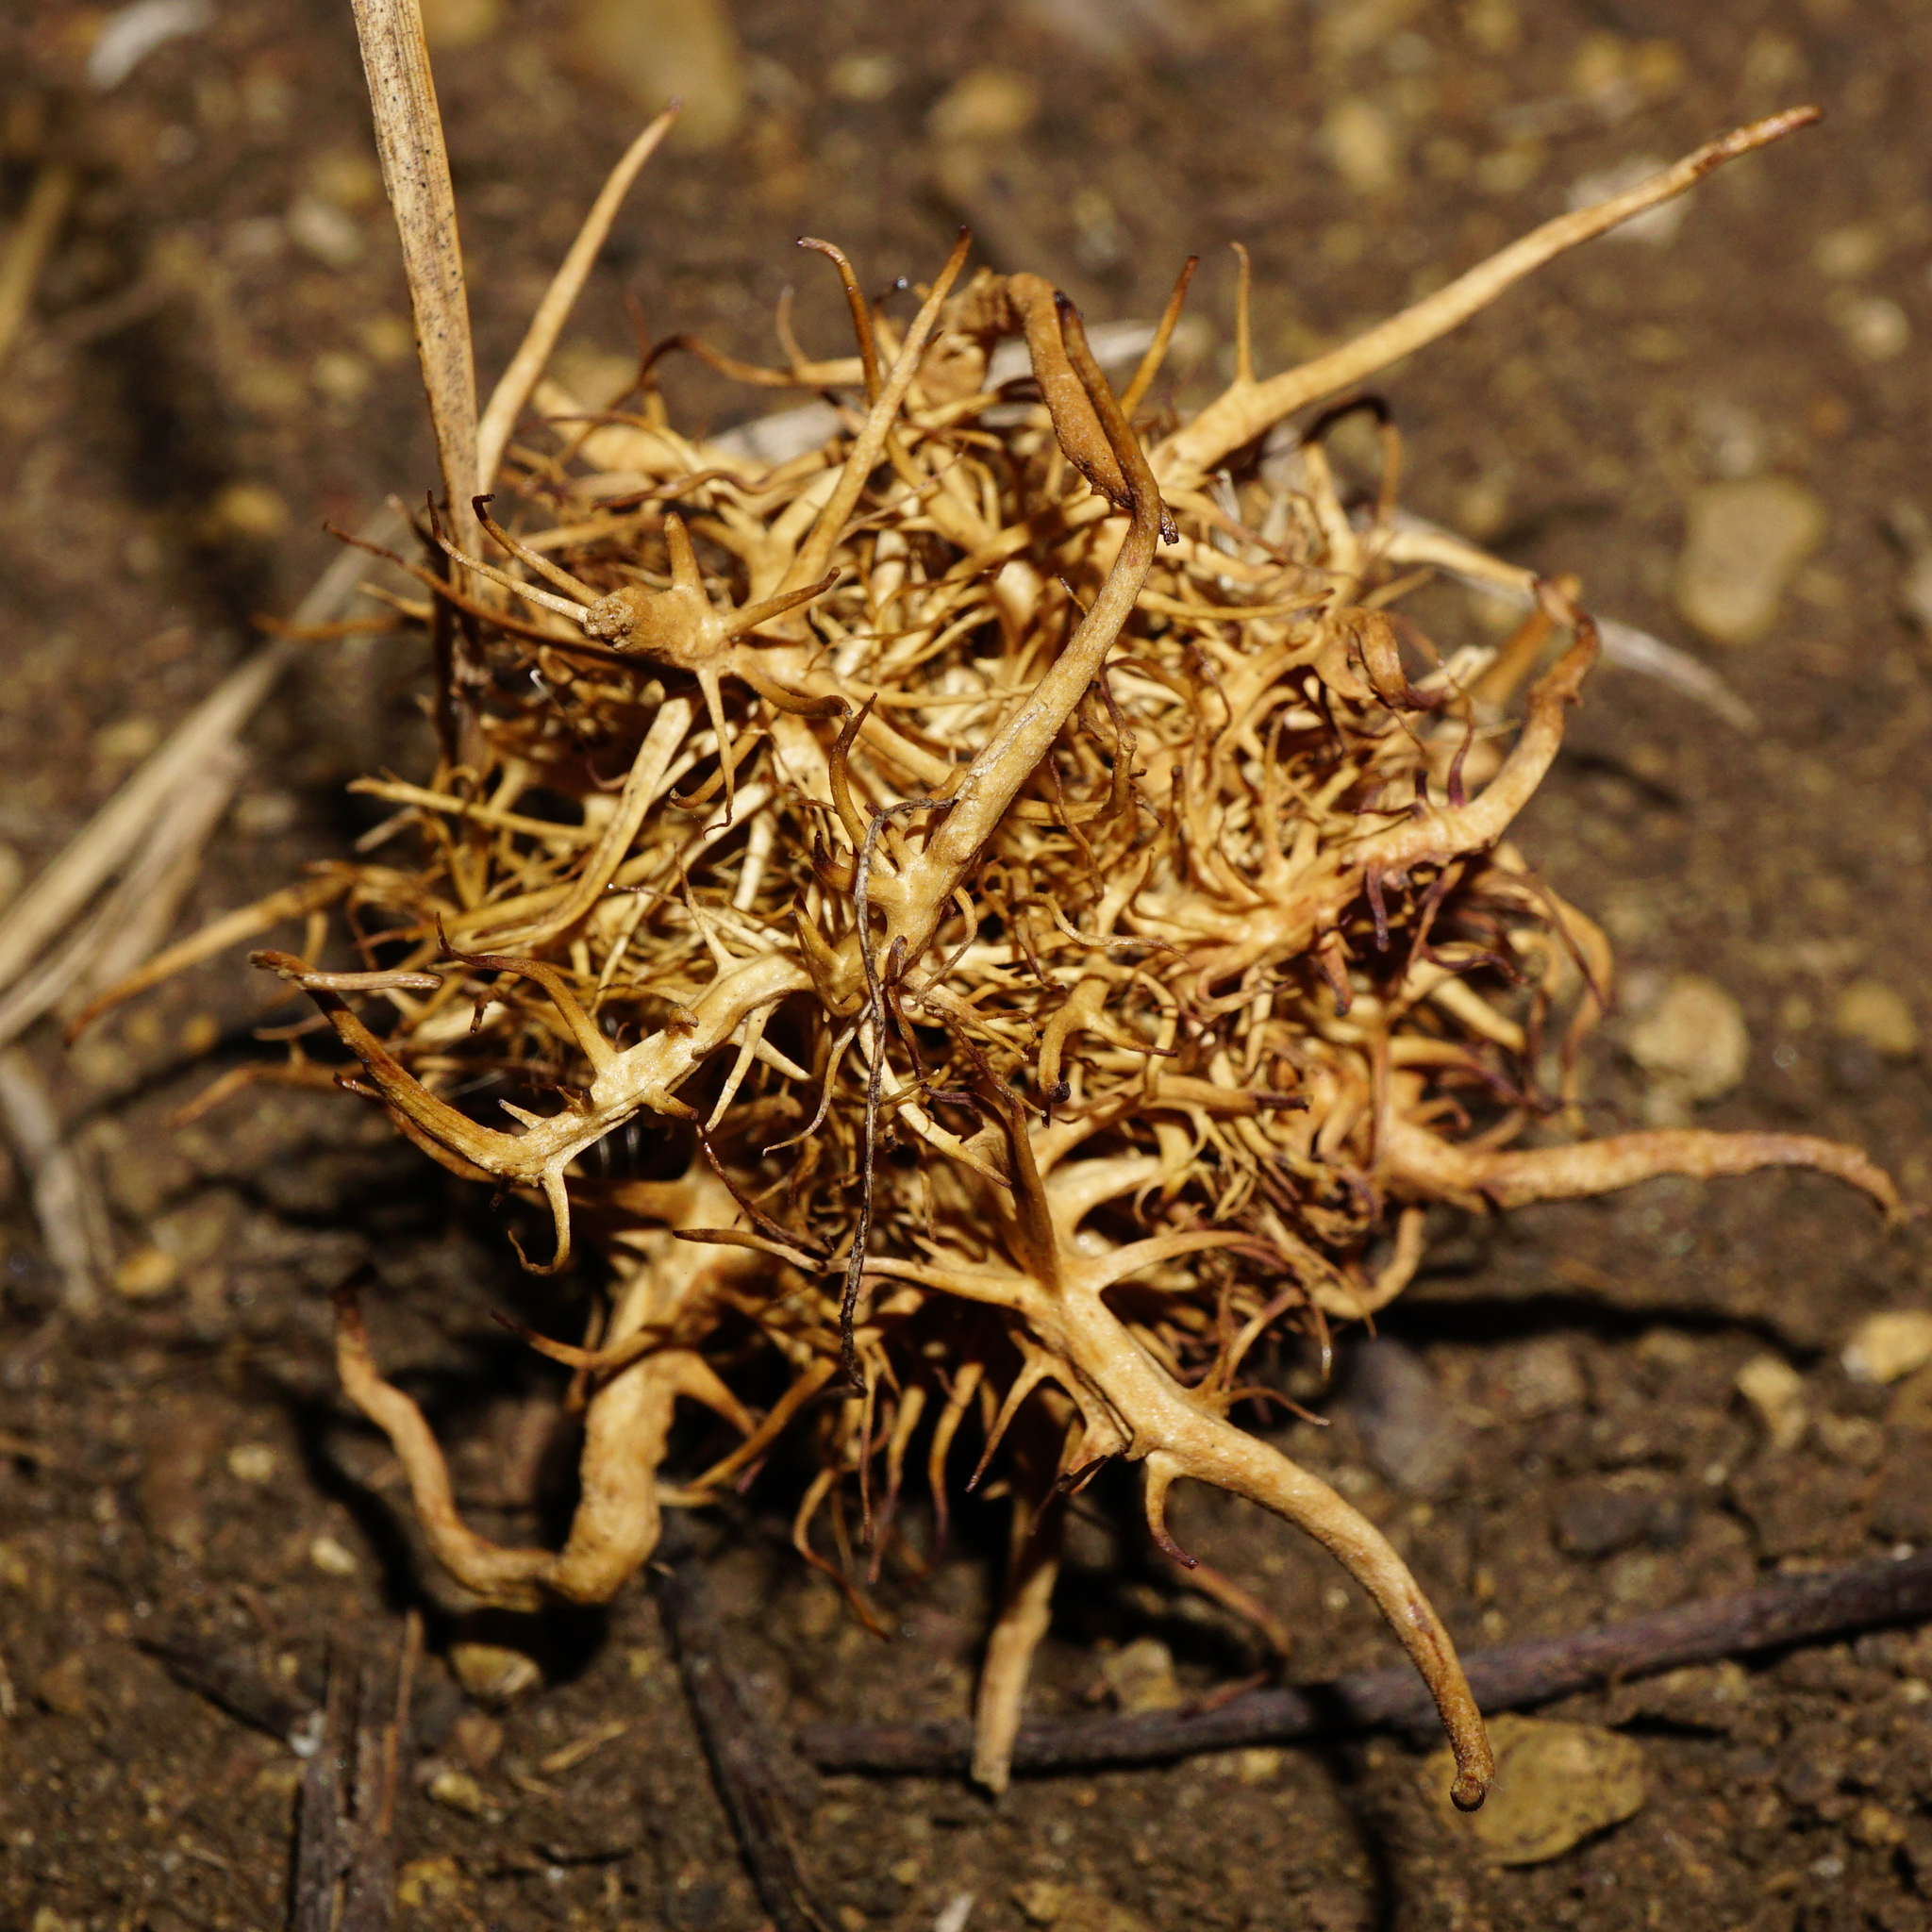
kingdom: Animalia
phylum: Arthropoda
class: Insecta
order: Hymenoptera
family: Cynipidae
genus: Andricus
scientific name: Andricus caputmedusae
